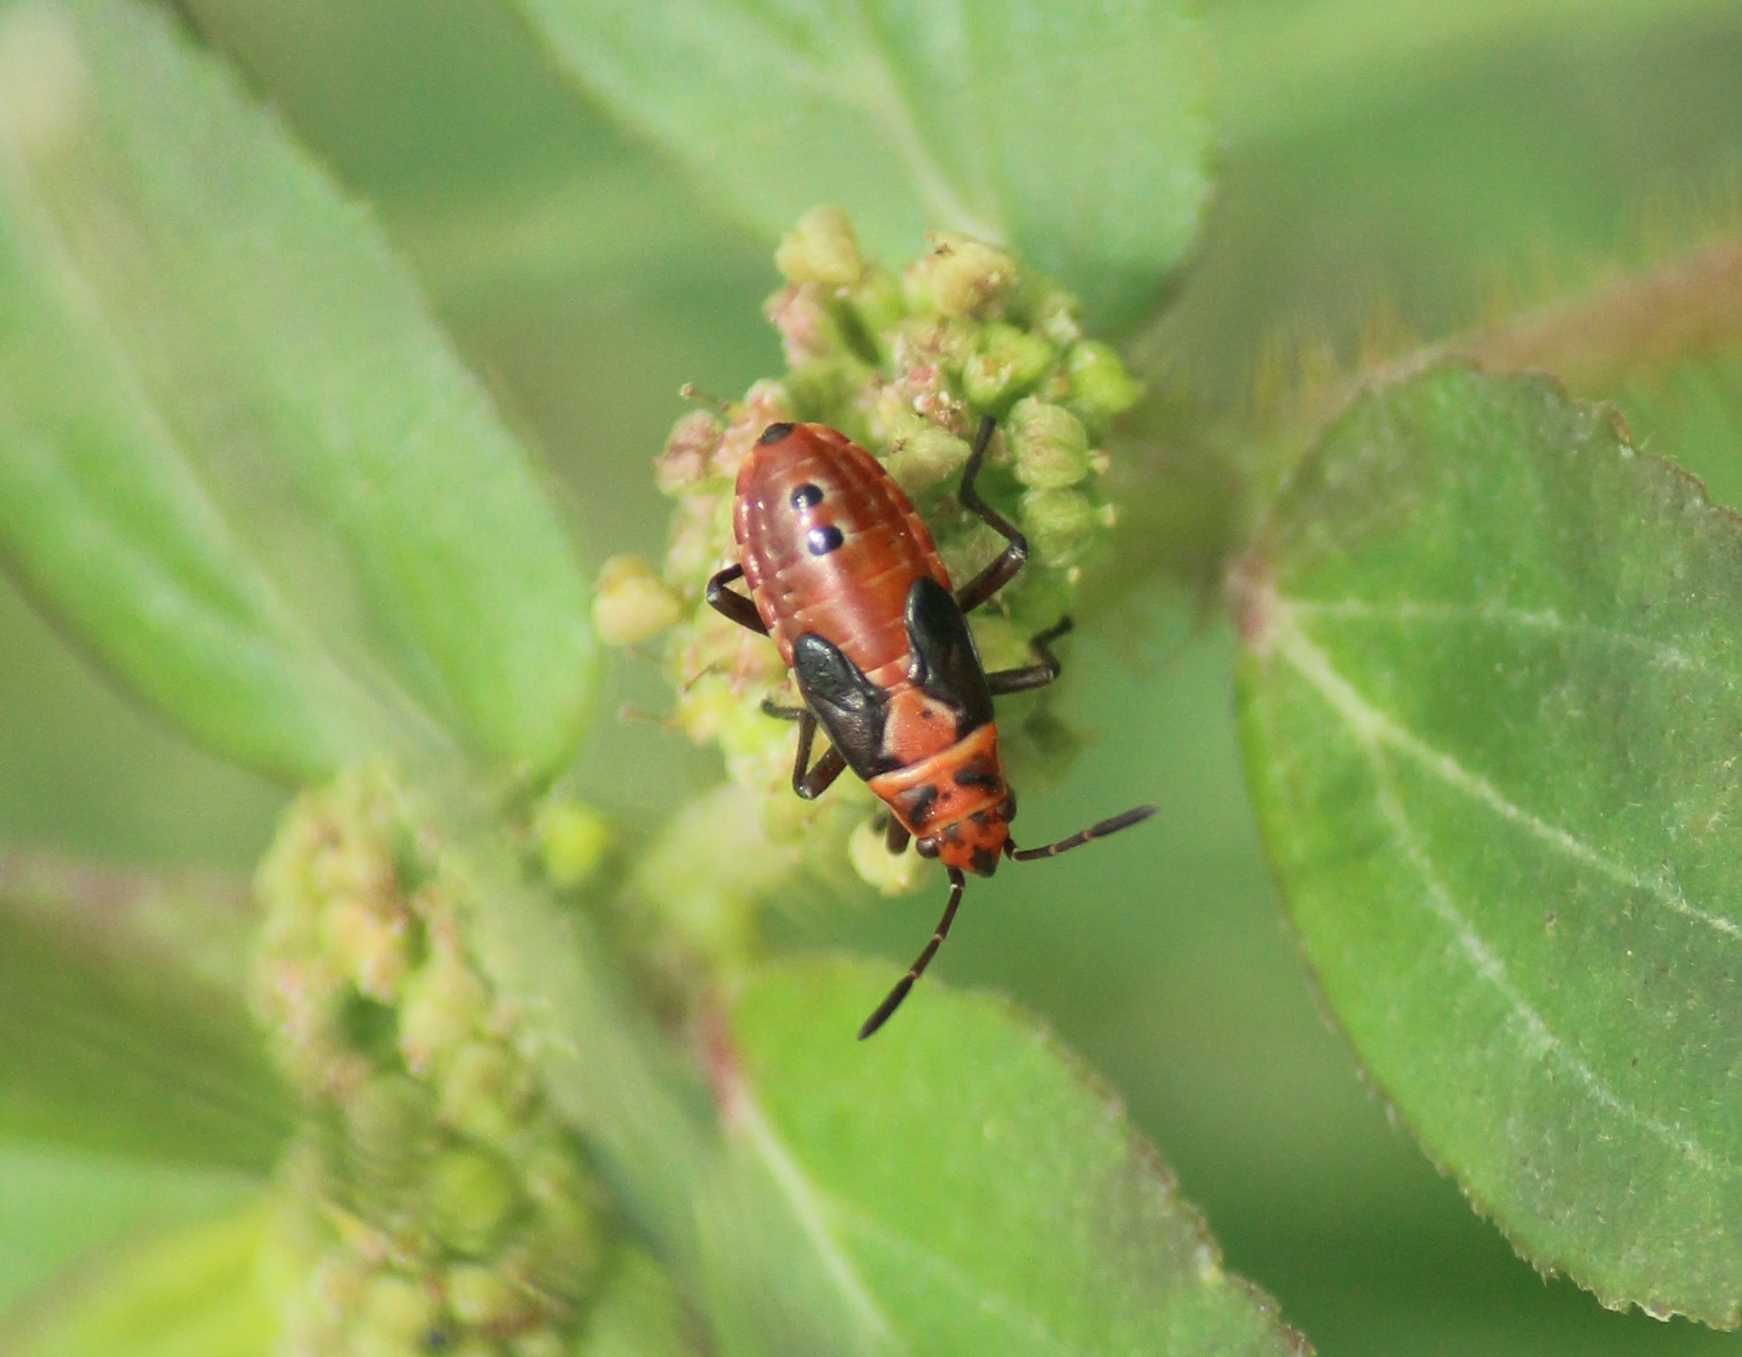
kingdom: Animalia
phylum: Arthropoda
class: Insecta
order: Hemiptera
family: Lygaeidae
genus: Spilostethus
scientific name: Spilostethus hospes
